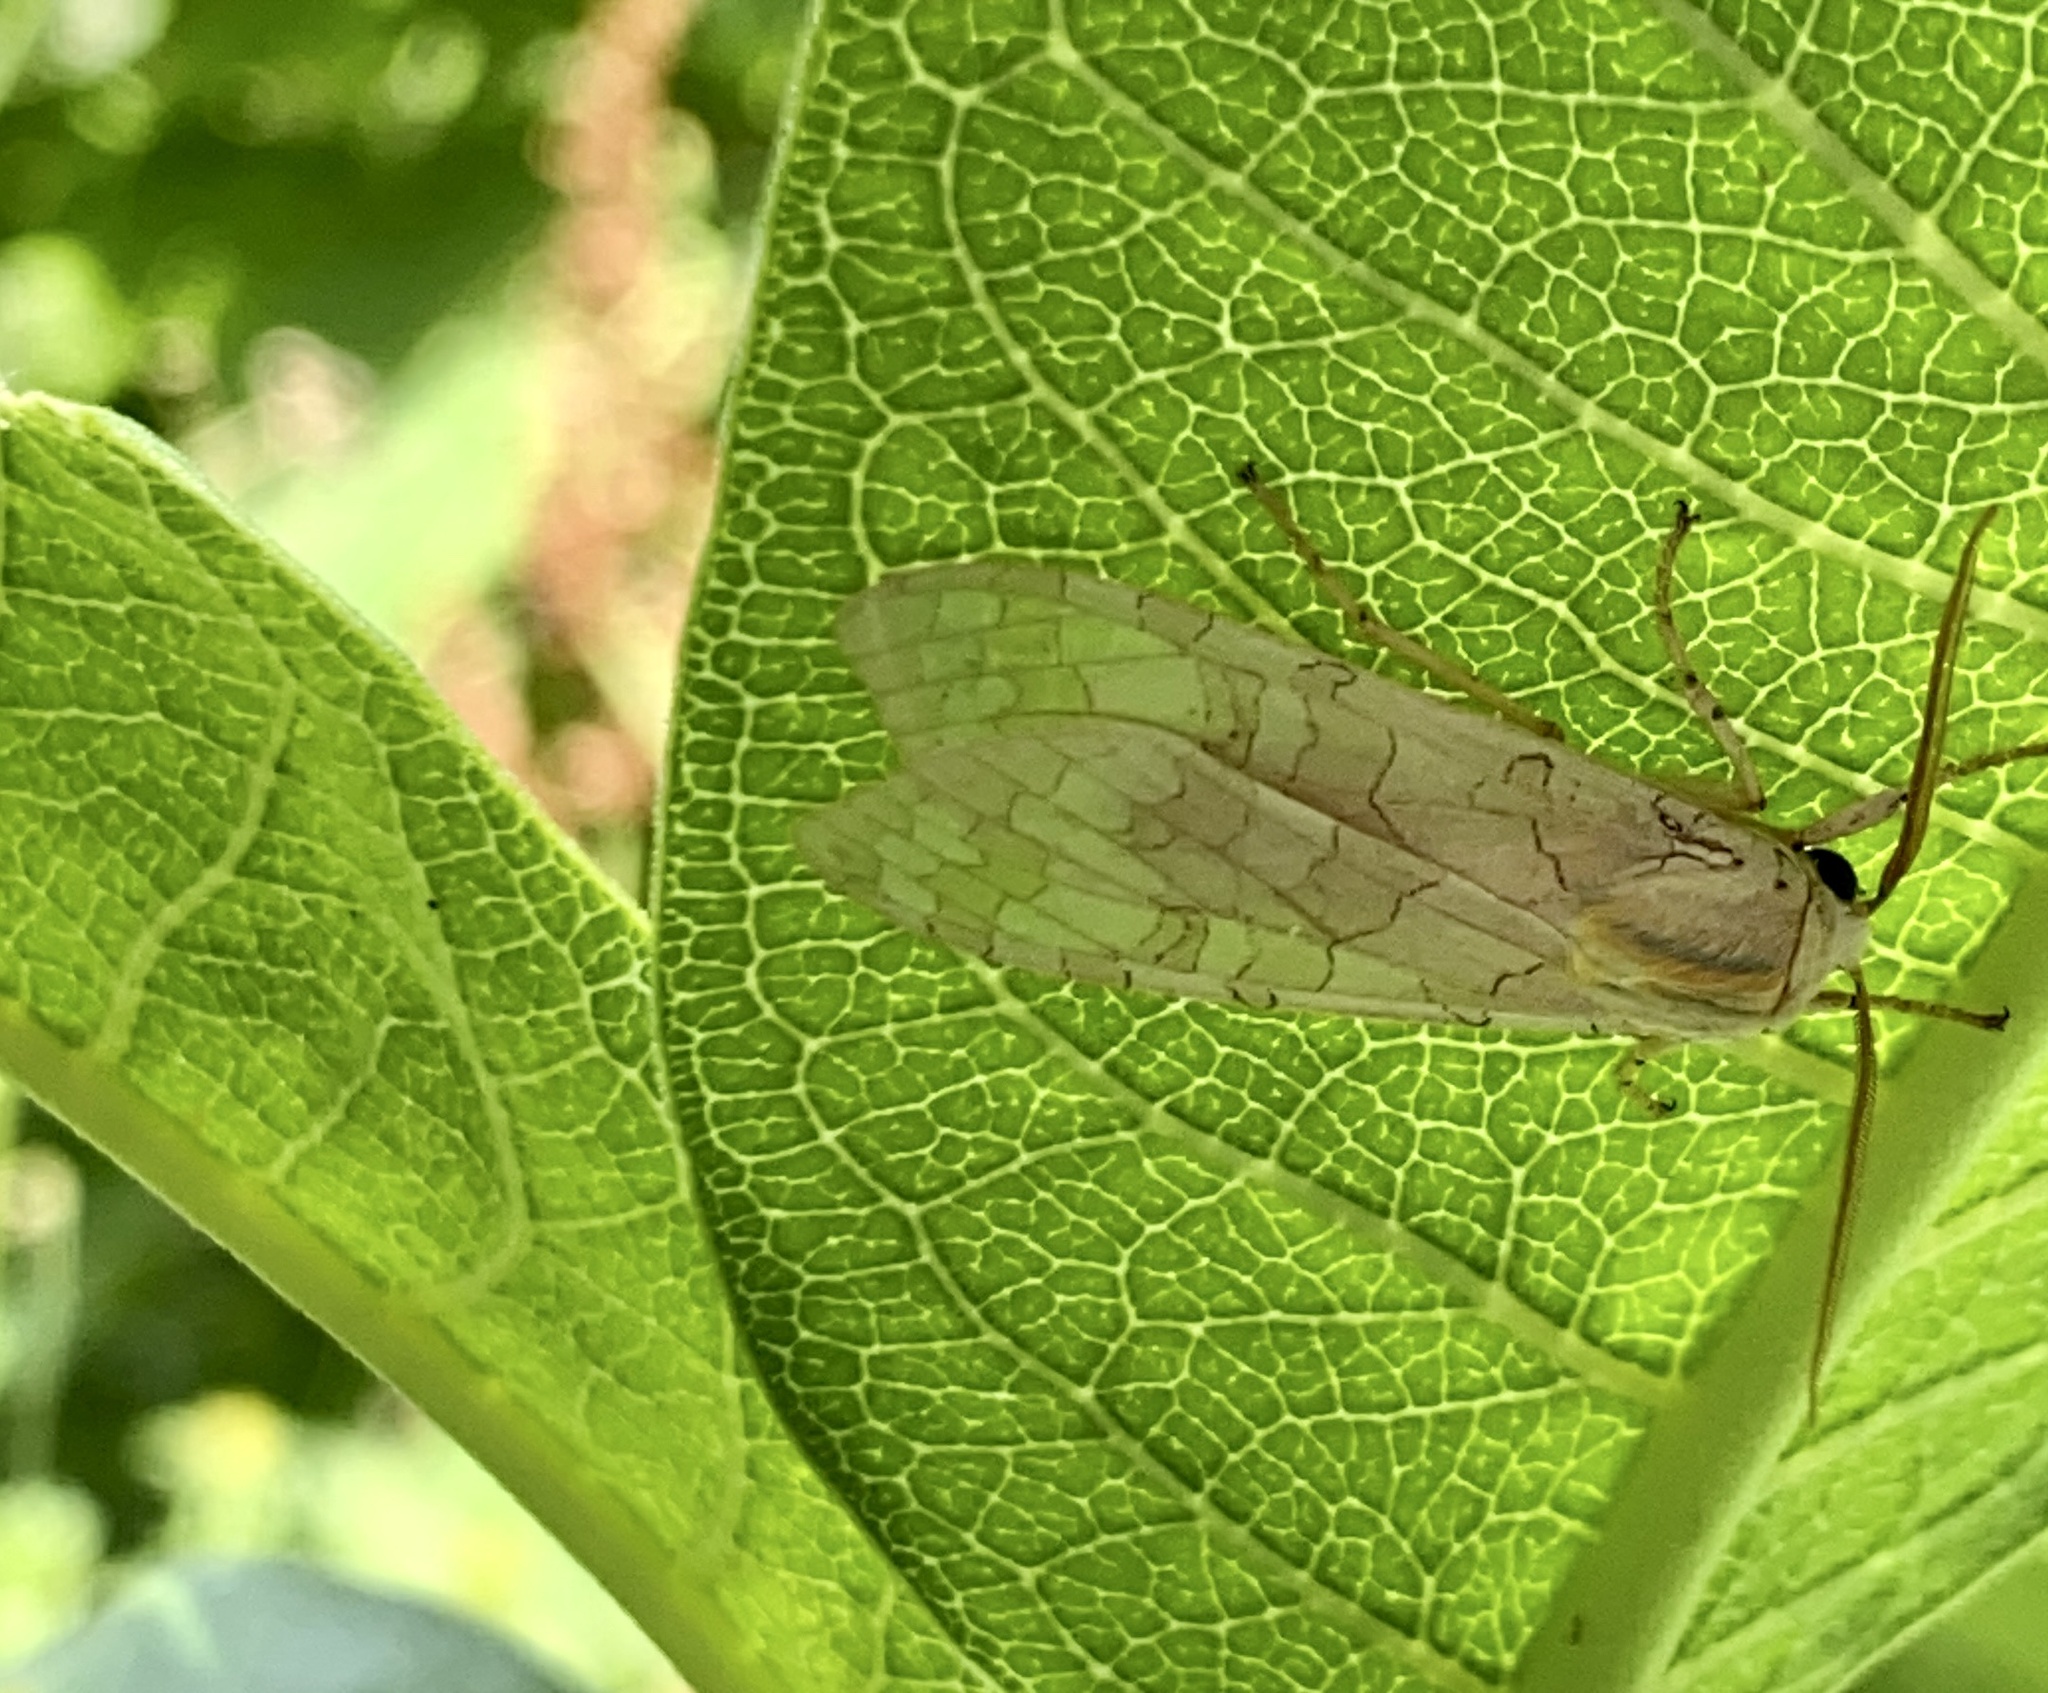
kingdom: Animalia
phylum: Arthropoda
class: Insecta
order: Lepidoptera
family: Erebidae
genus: Halysidota
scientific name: Halysidota
